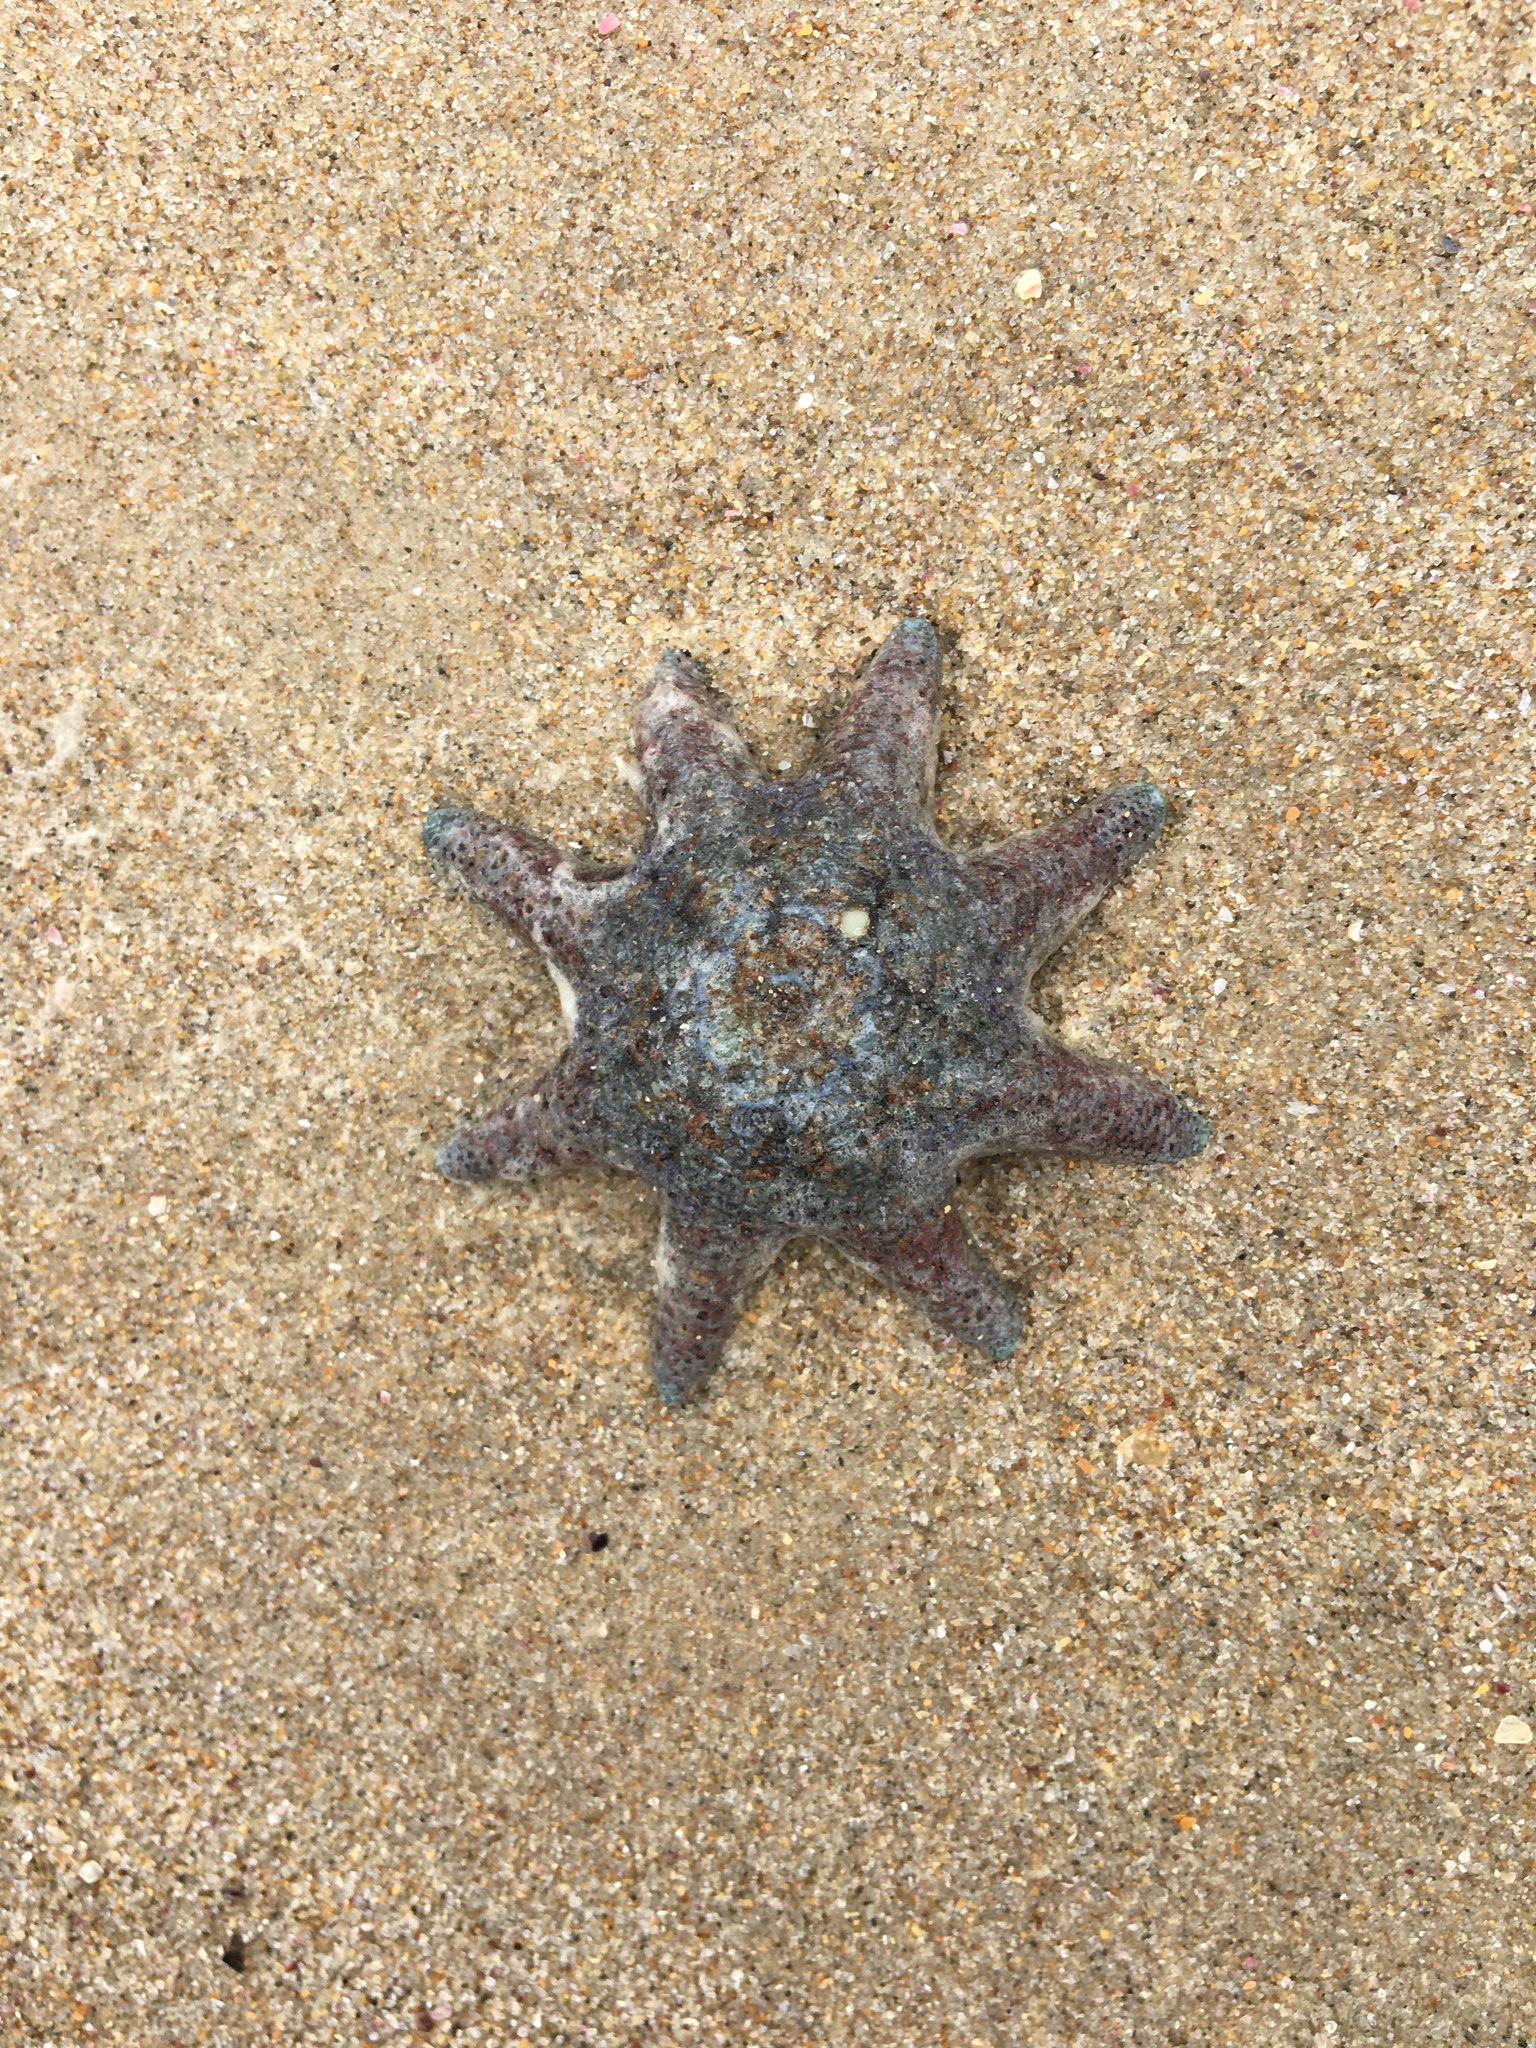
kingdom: Animalia
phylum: Echinodermata
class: Asteroidea
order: Valvatida
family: Asterinidae
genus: Meridiastra
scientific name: Meridiastra calcar
